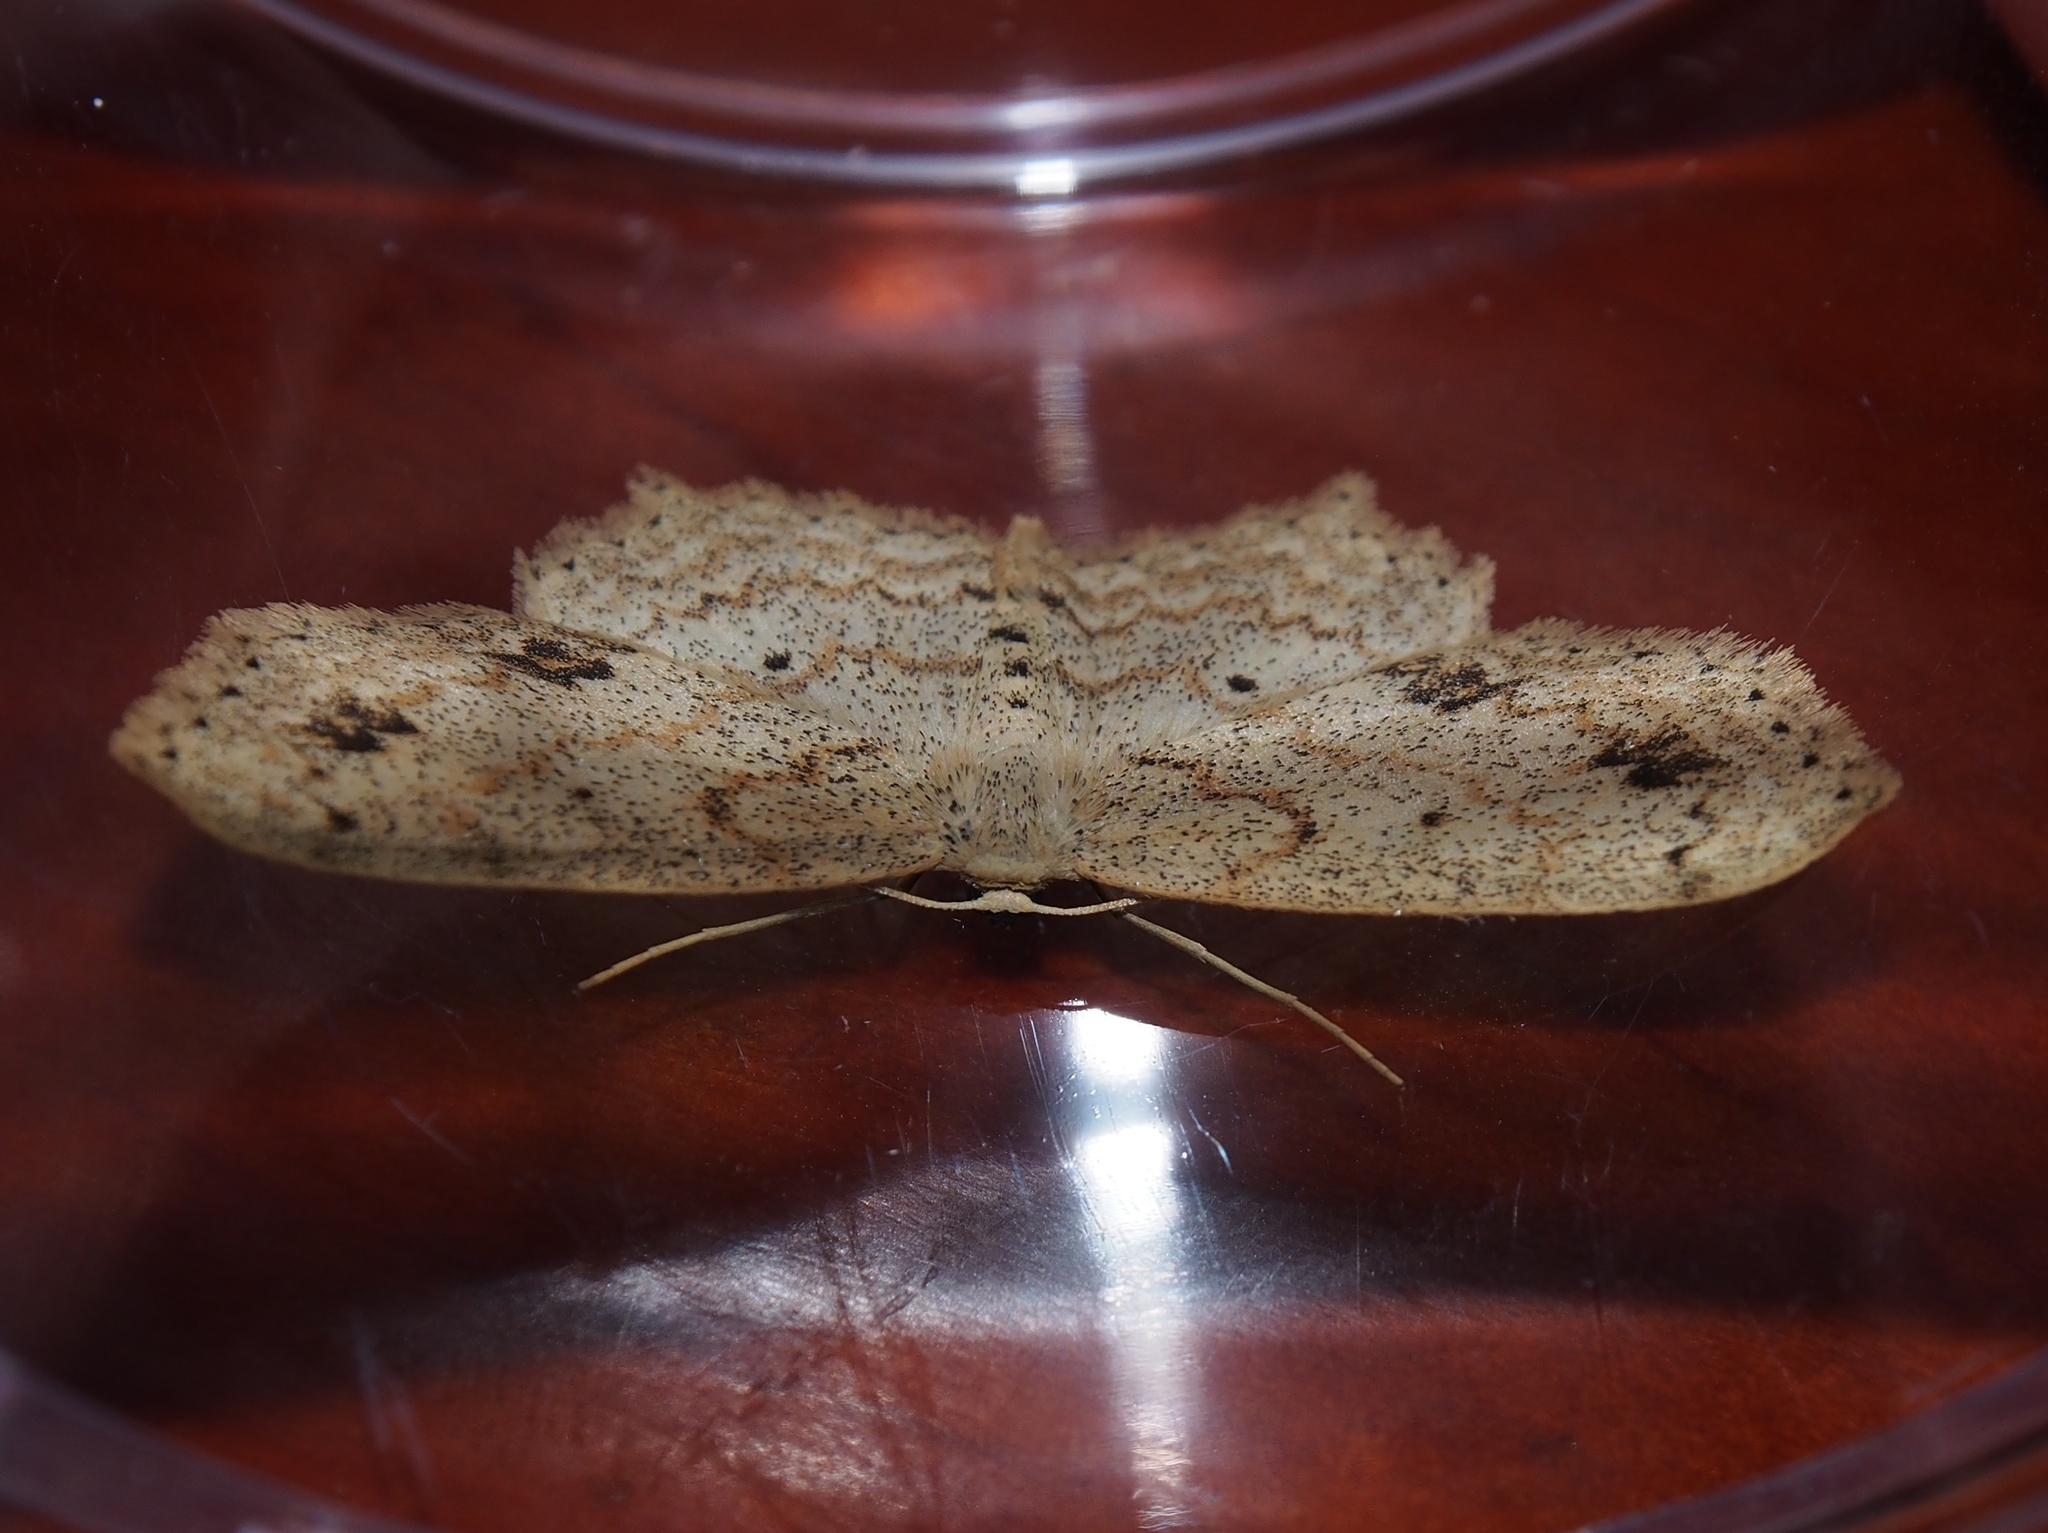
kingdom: Animalia
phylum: Arthropoda
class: Insecta
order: Lepidoptera
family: Geometridae
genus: Scopula
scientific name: Scopula phyxelis
